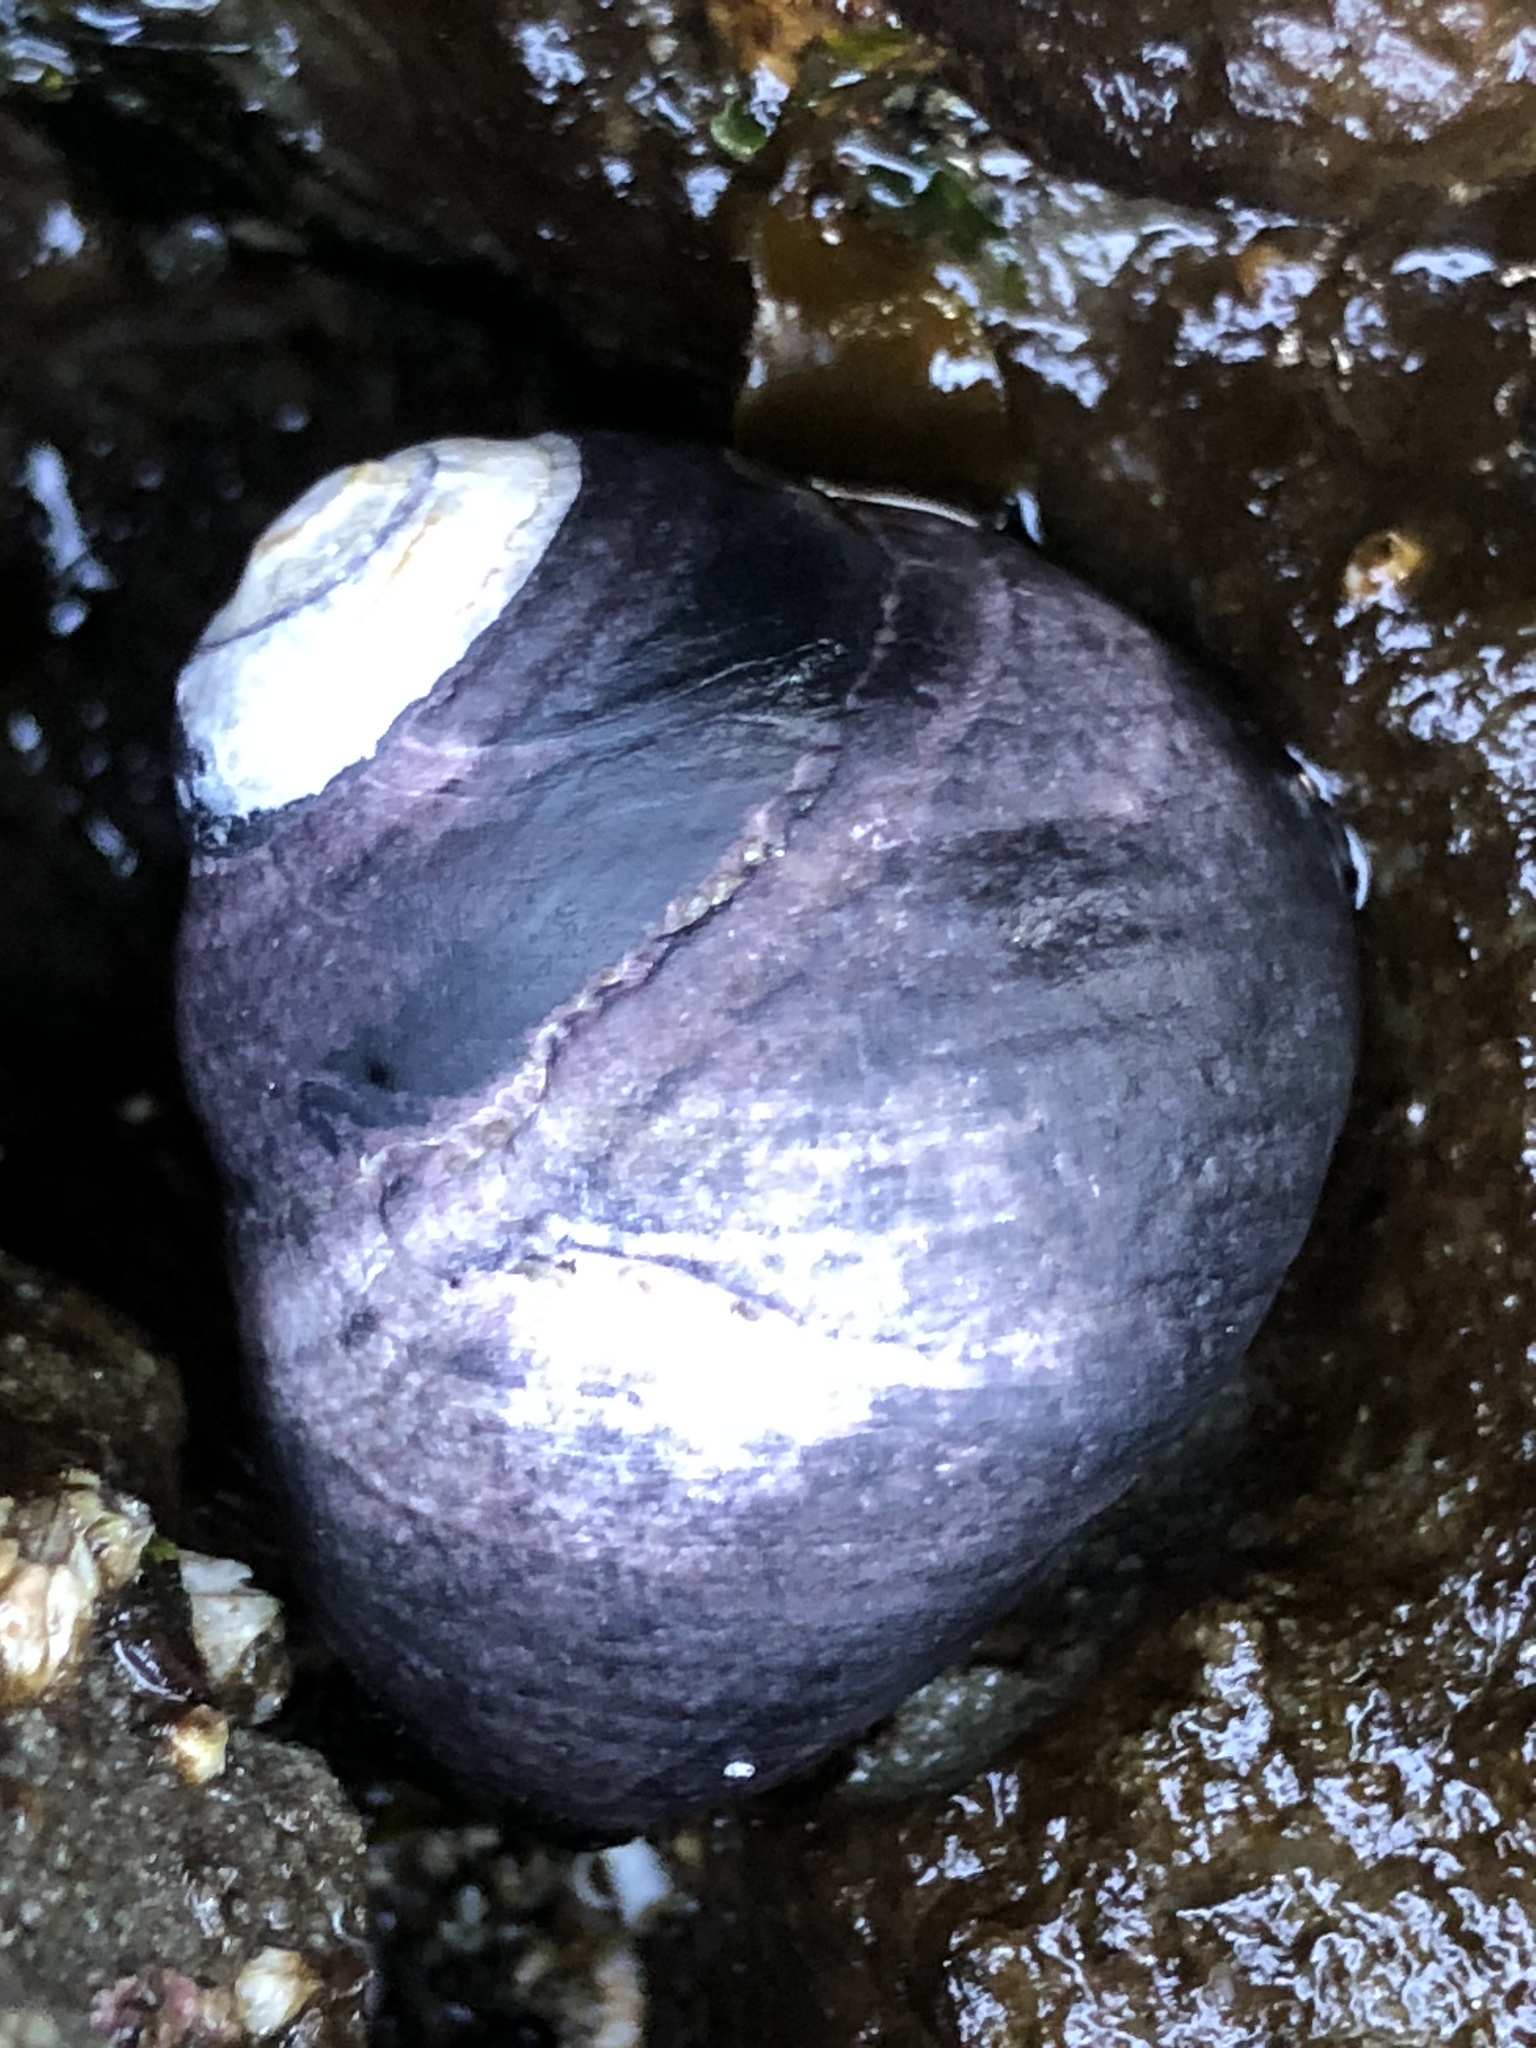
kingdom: Animalia
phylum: Mollusca
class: Gastropoda
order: Trochida
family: Tegulidae
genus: Tegula
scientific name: Tegula funebralis
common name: Black tegula
